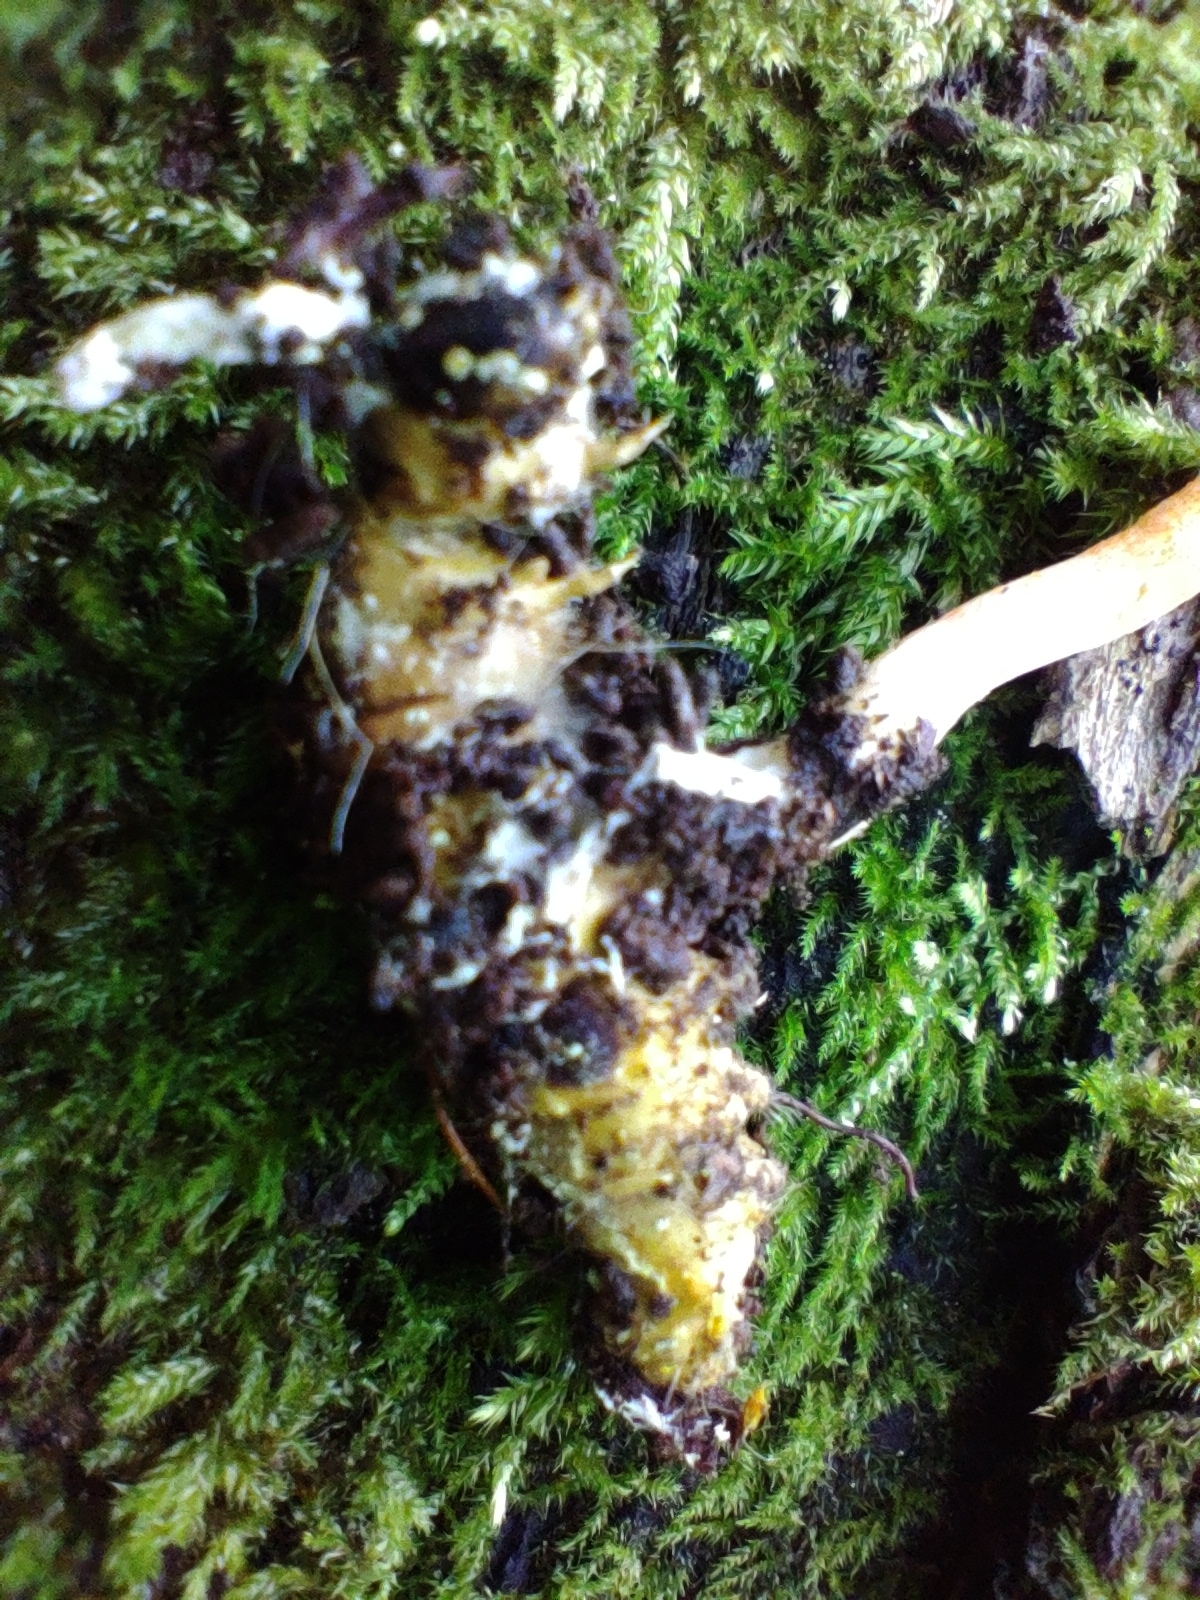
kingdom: Fungi
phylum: Ascomycota
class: Sordariomycetes
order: Hypocreales
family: Cordycipitaceae
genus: Cordyceps
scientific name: Cordyceps militaris
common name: Scarlet caterpillar fungus
